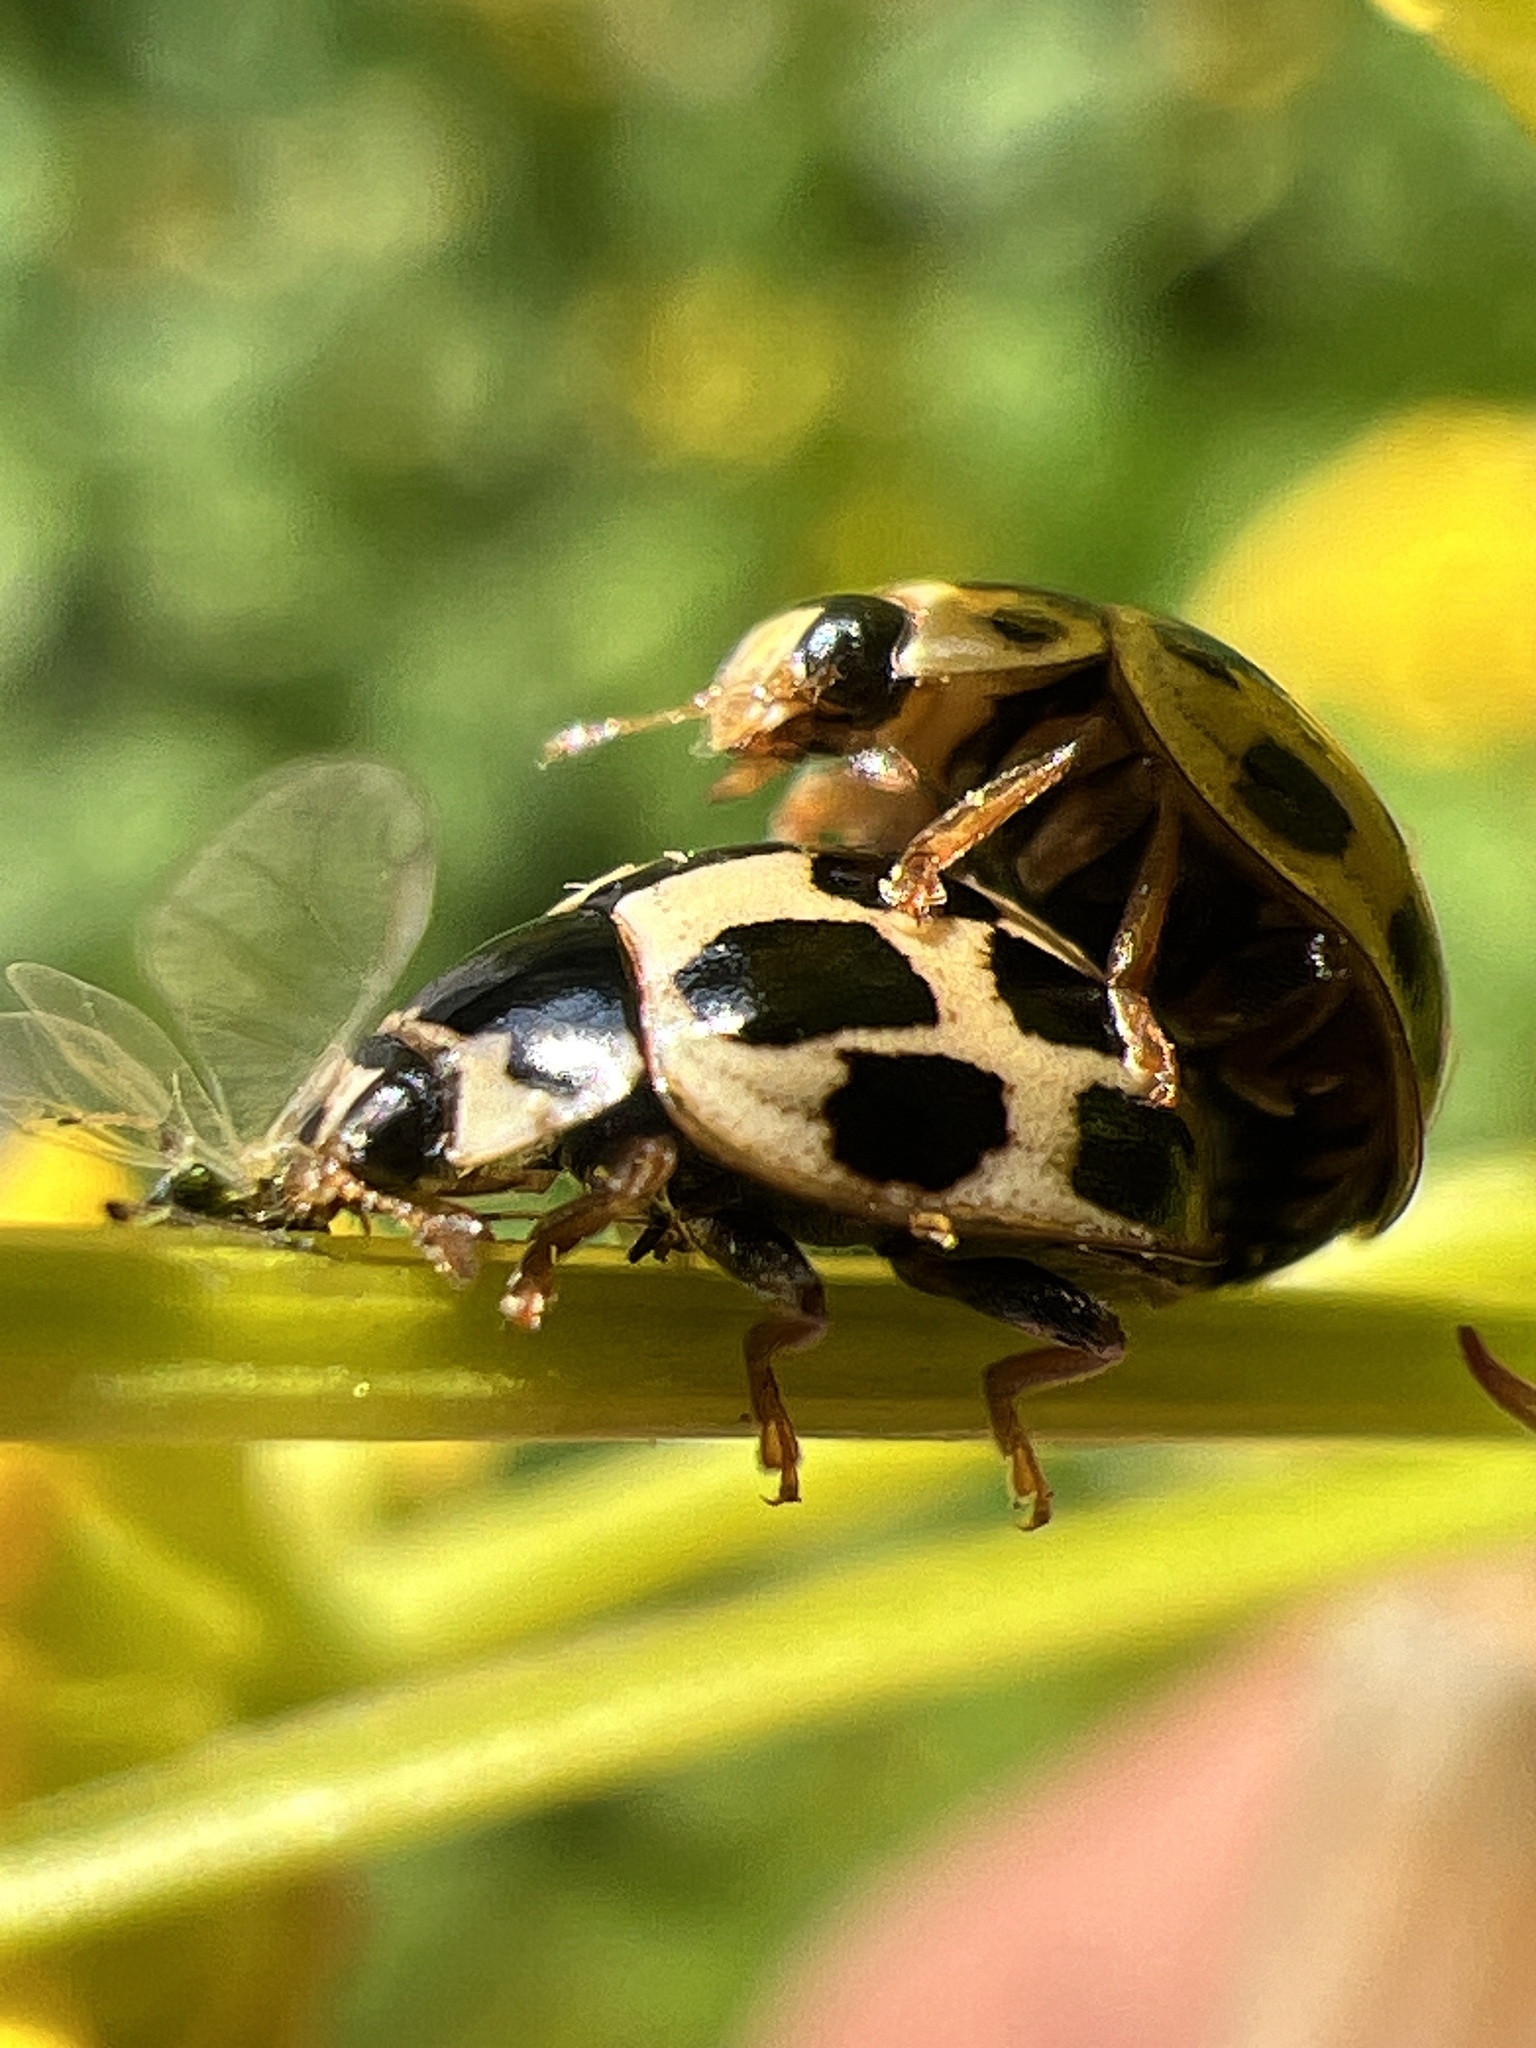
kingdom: Animalia
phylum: Arthropoda
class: Insecta
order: Coleoptera
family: Coccinellidae
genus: Propylaea
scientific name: Propylaea quatuordecimpunctata
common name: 14-spotted ladybird beetle
